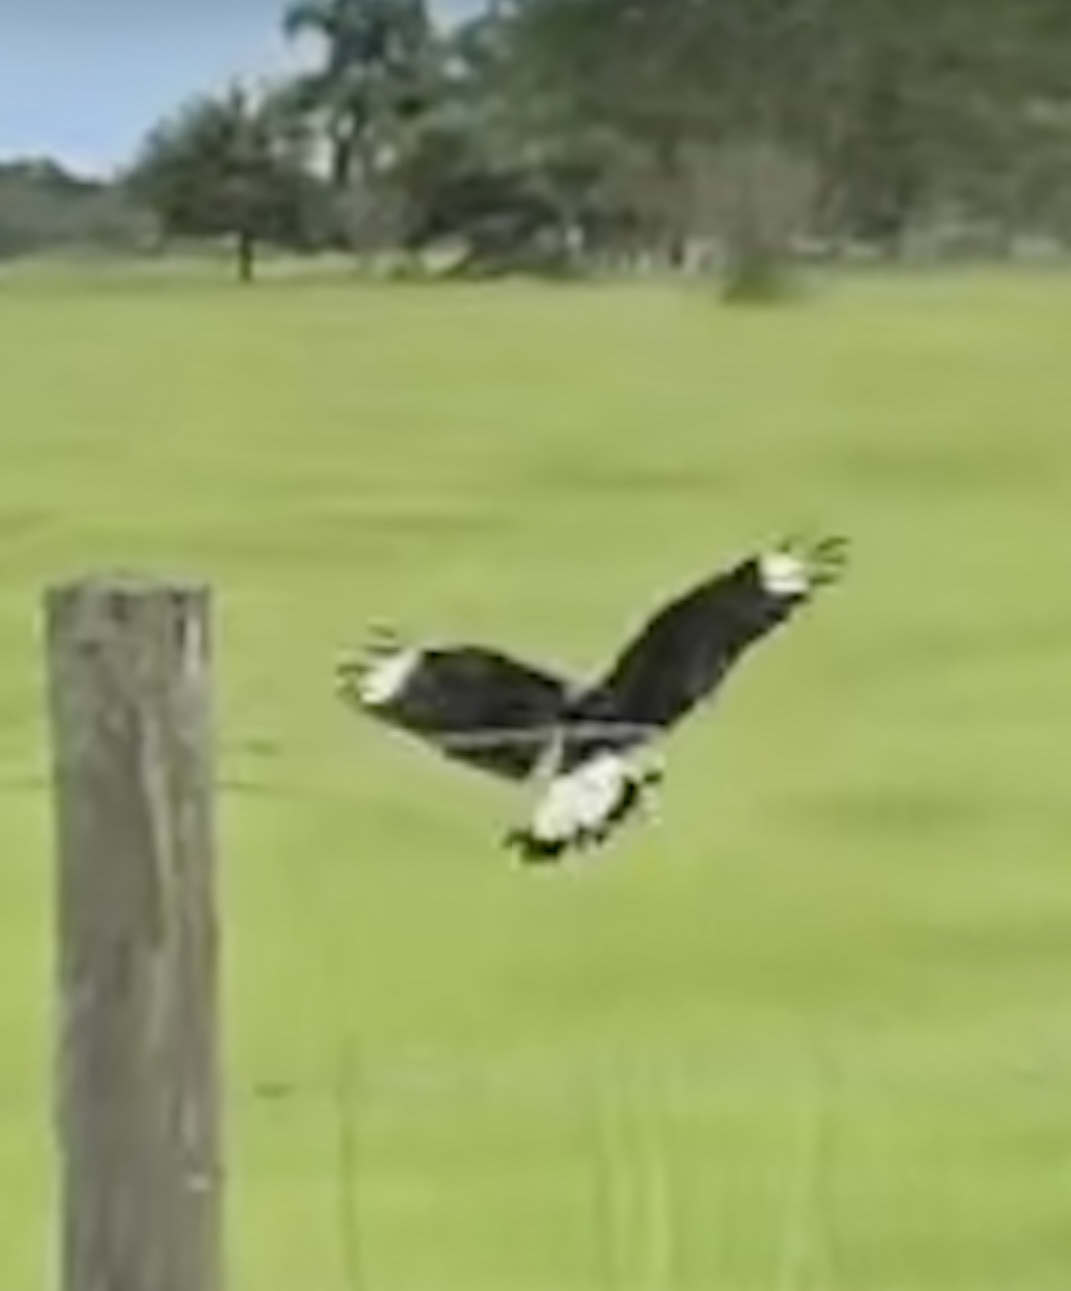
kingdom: Animalia
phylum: Chordata
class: Aves
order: Falconiformes
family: Falconidae
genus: Caracara
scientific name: Caracara plancus
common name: Southern caracara
